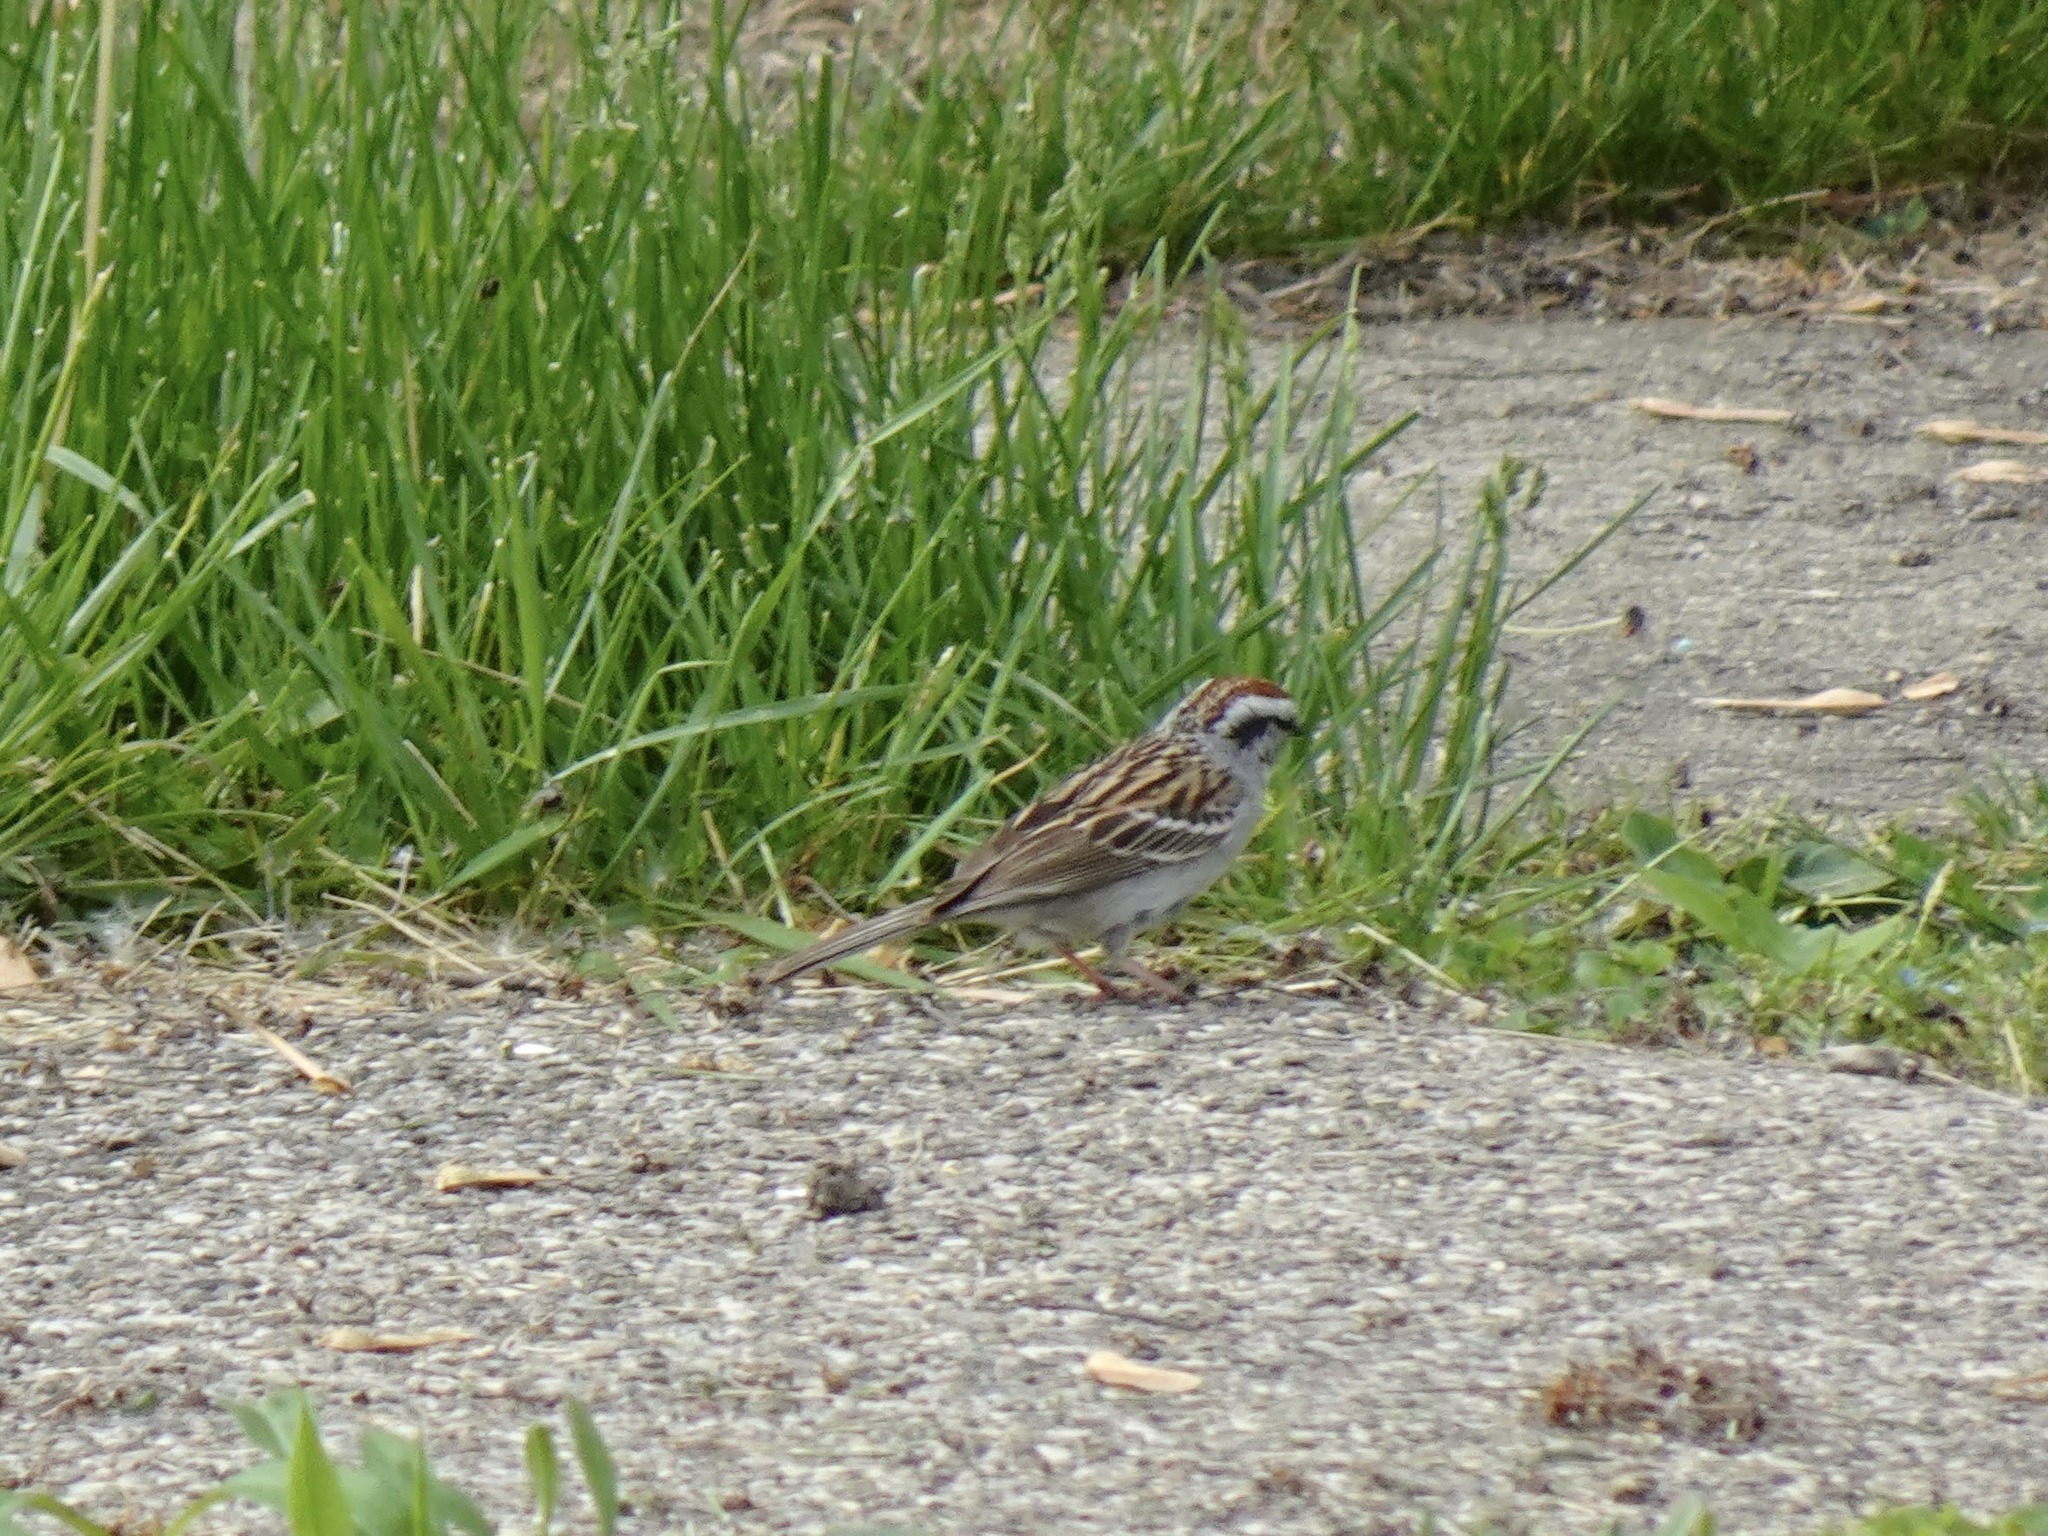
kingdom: Animalia
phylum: Chordata
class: Aves
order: Passeriformes
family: Passerellidae
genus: Spizella
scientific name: Spizella passerina
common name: Chipping sparrow
